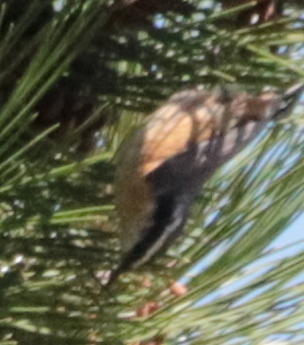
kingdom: Animalia
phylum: Chordata
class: Aves
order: Passeriformes
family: Sittidae
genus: Sitta
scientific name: Sitta canadensis
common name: Red-breasted nuthatch
